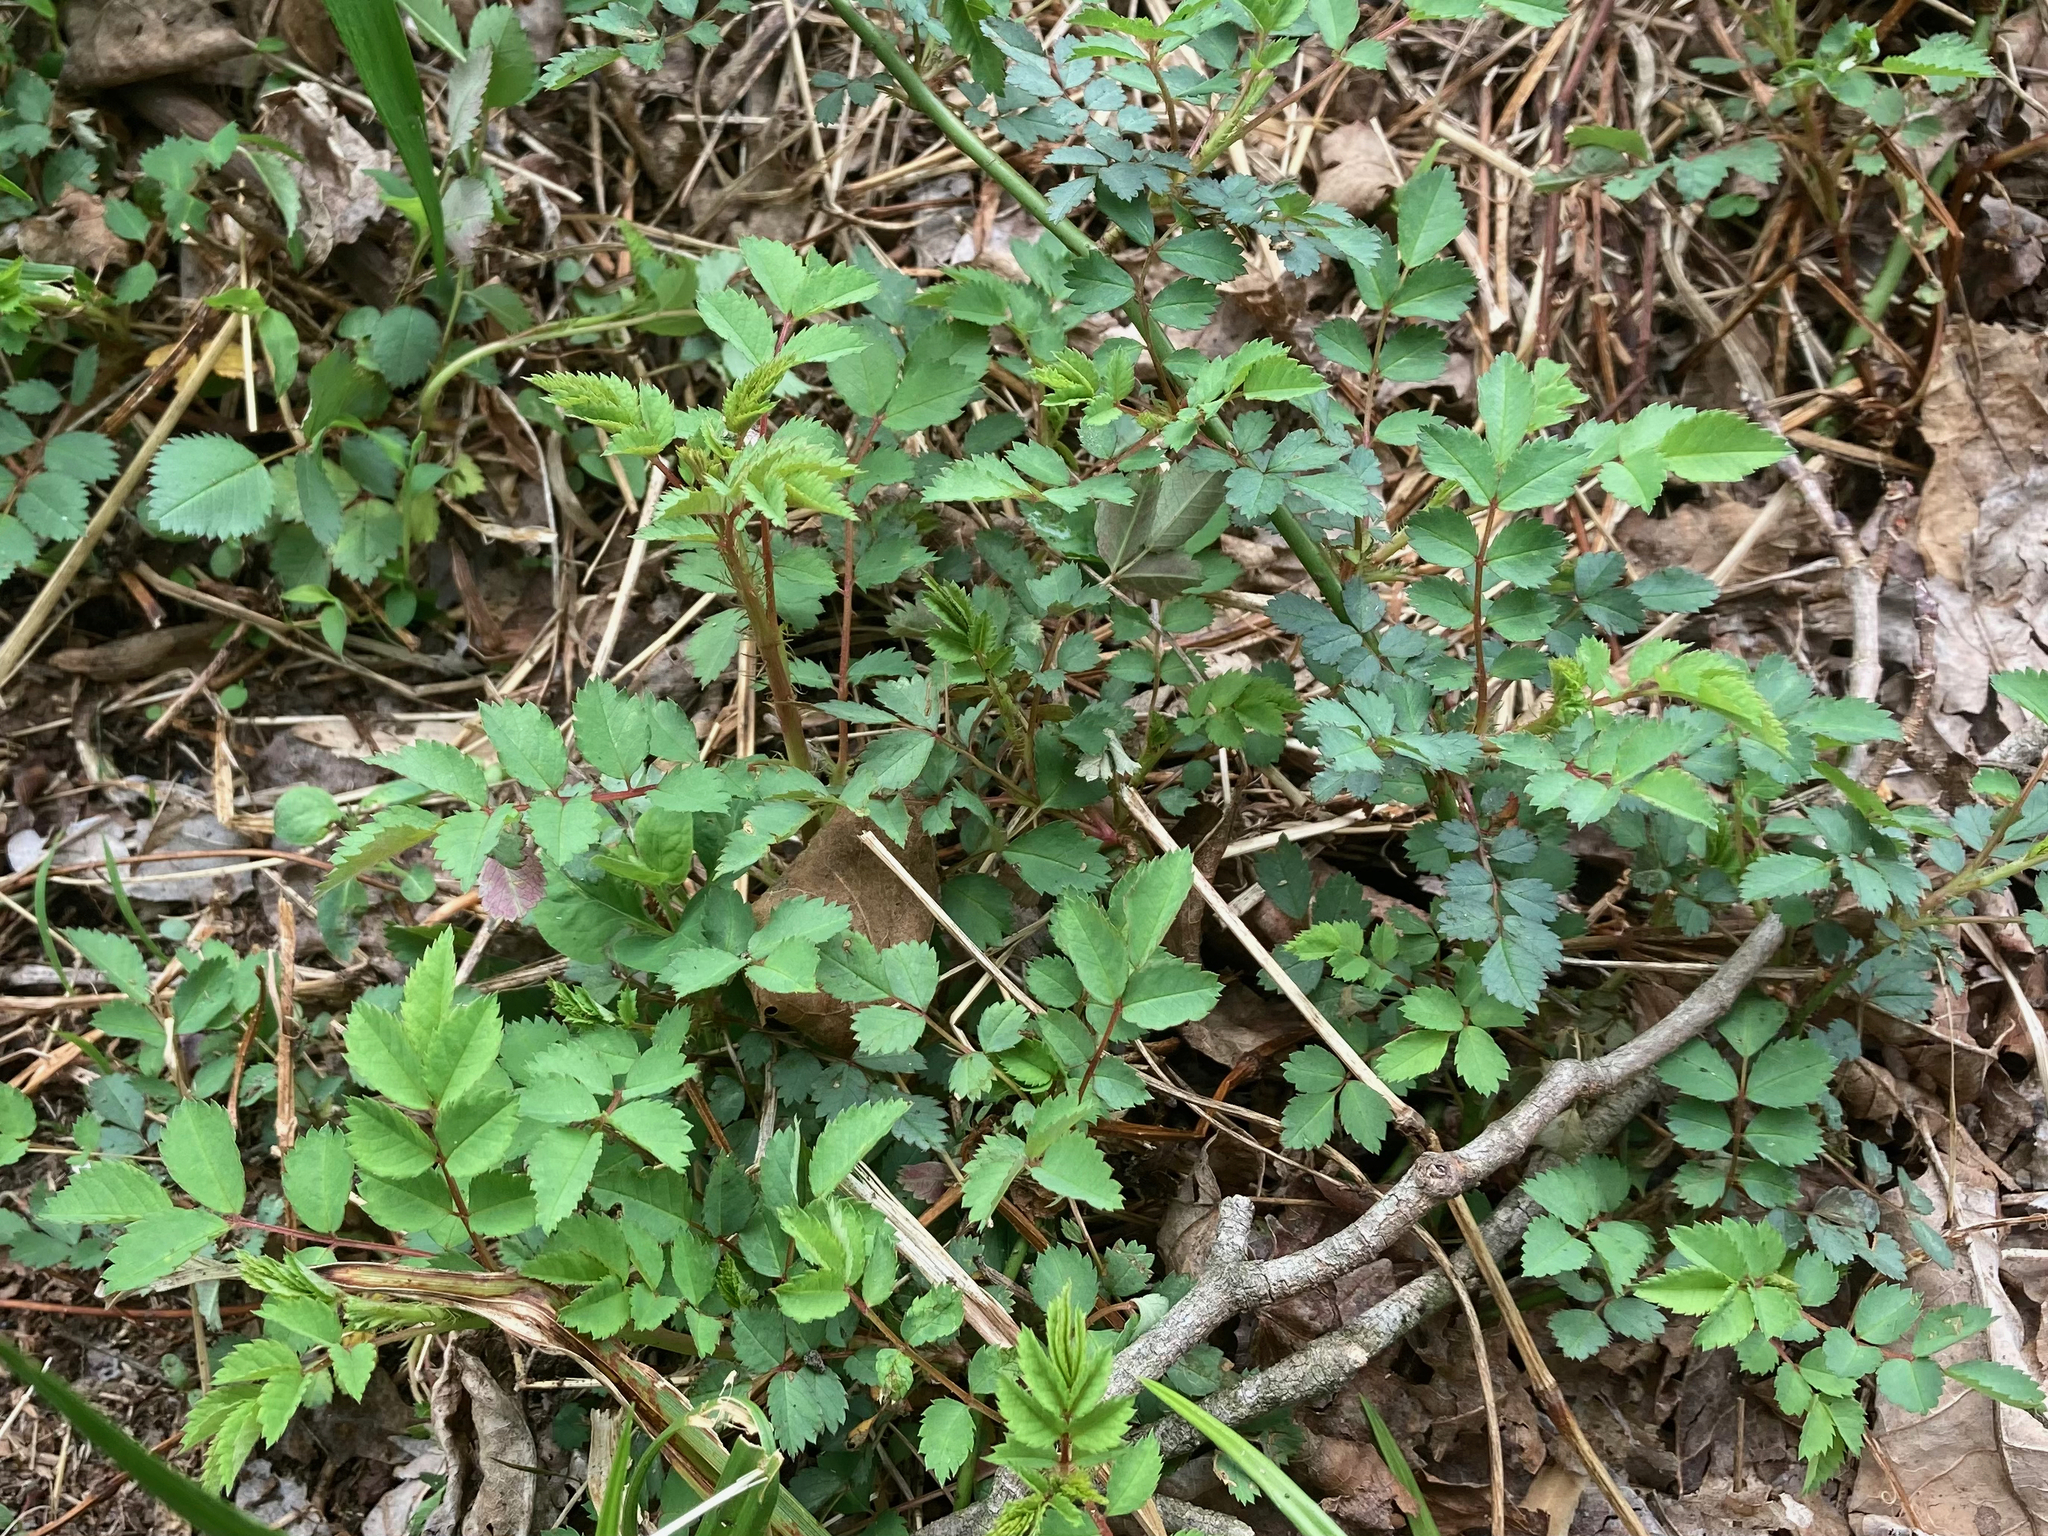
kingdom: Plantae
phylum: Tracheophyta
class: Magnoliopsida
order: Rosales
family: Rosaceae
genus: Rosa
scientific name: Rosa multiflora
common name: Multiflora rose
